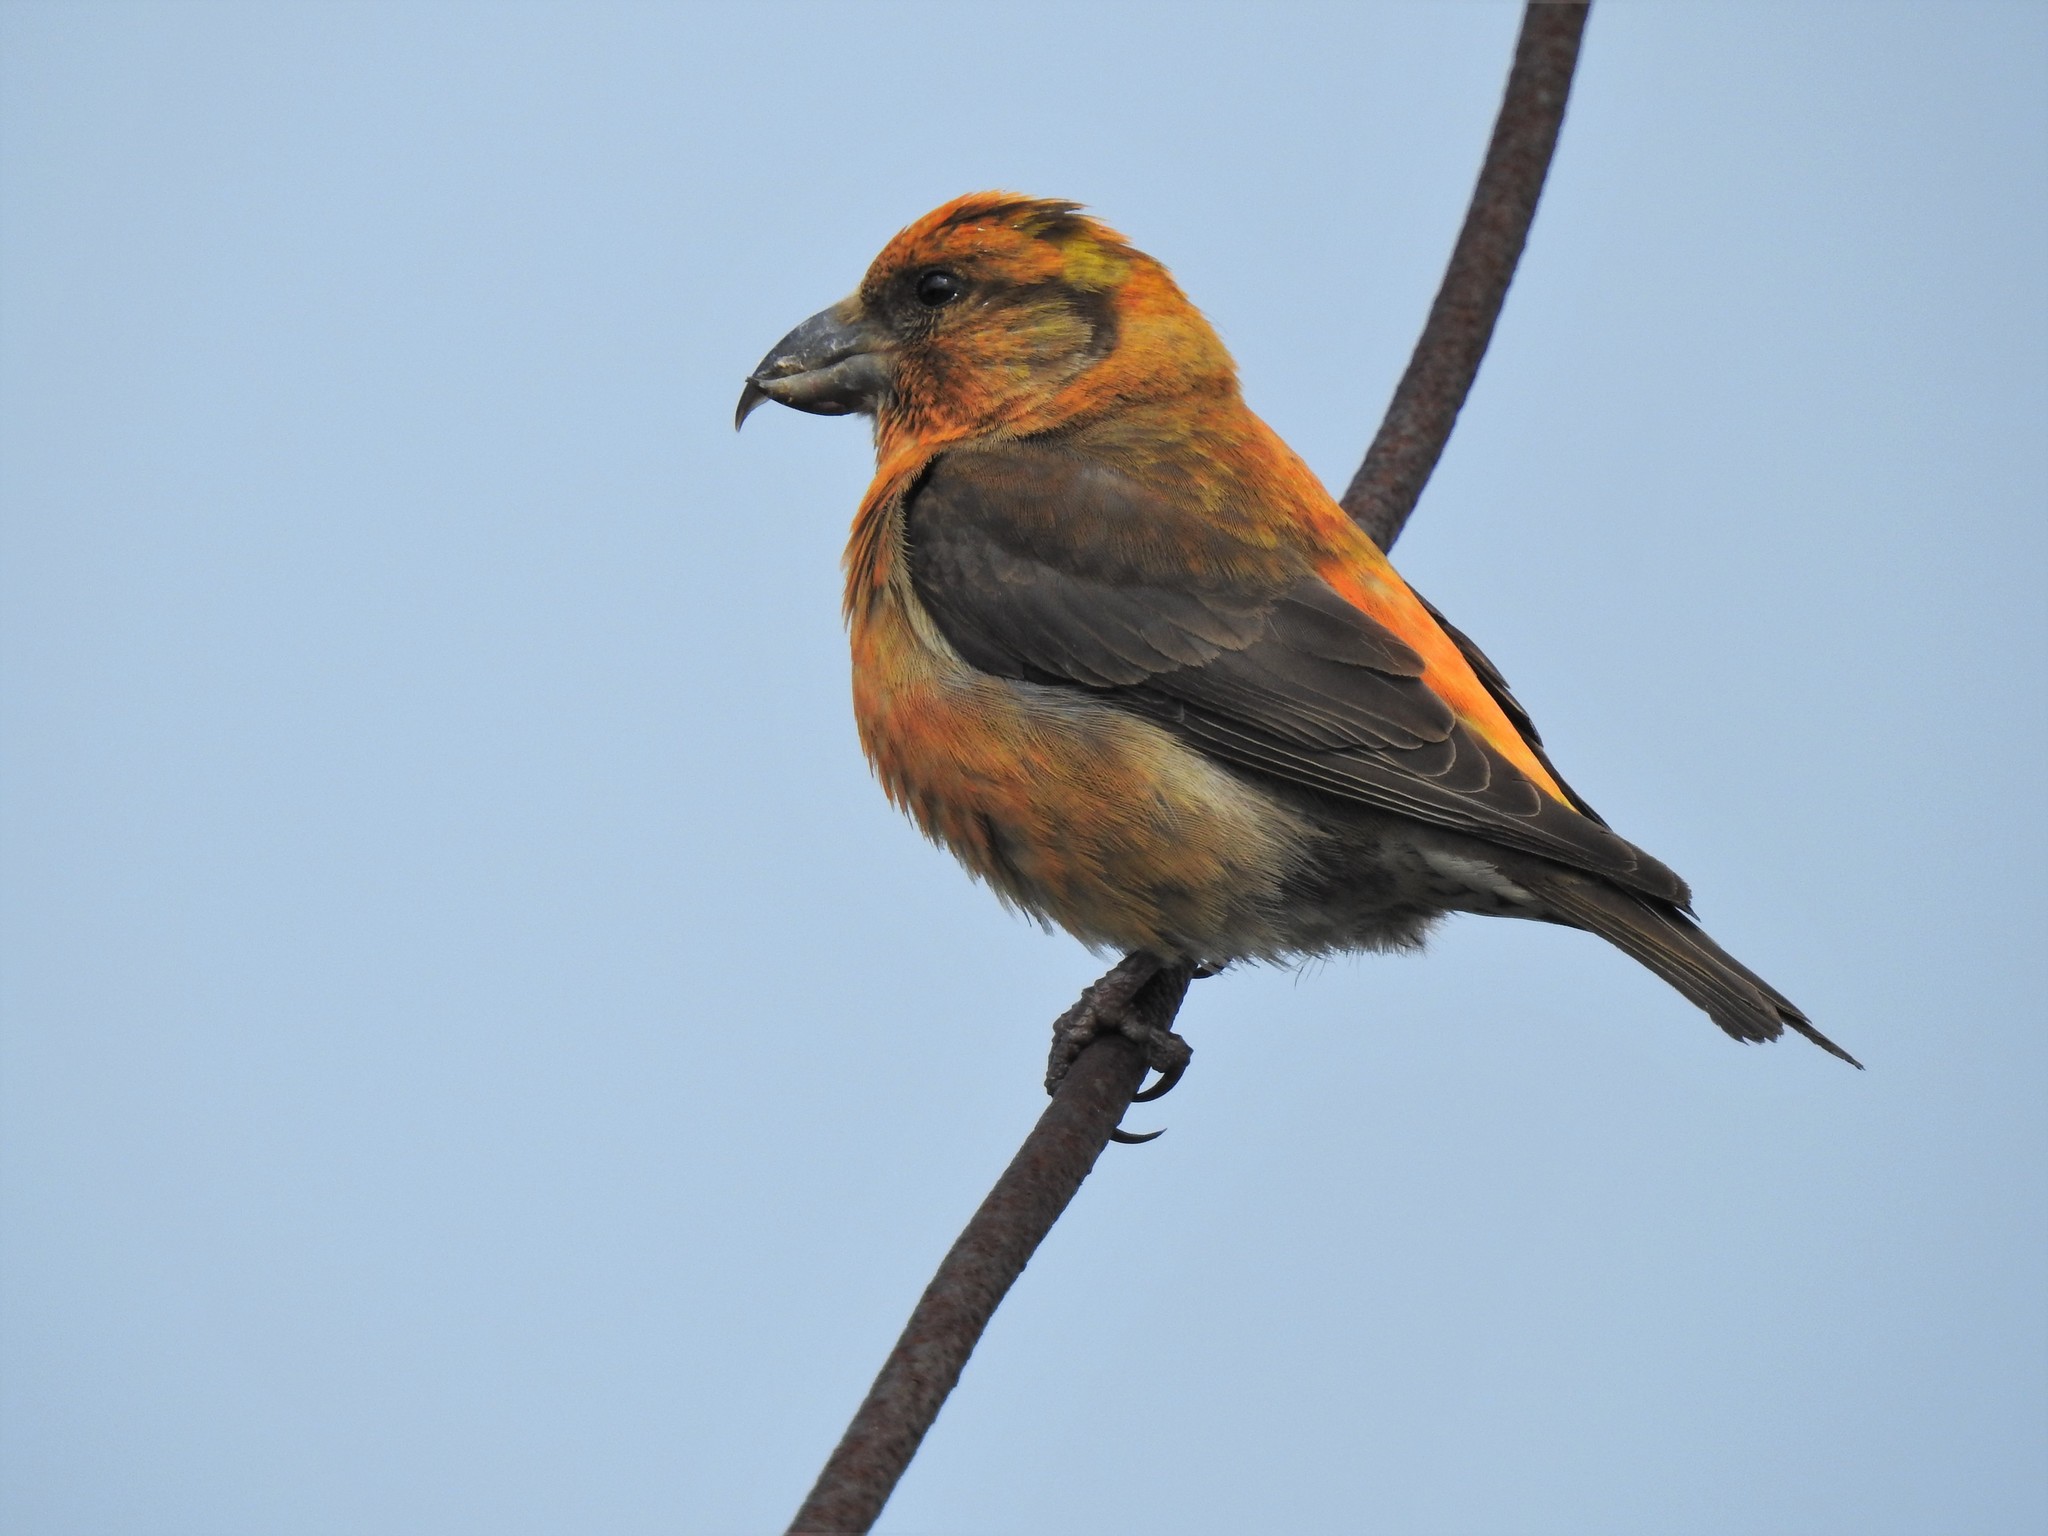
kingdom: Animalia
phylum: Chordata
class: Aves
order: Passeriformes
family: Fringillidae
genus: Loxia
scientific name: Loxia curvirostra
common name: Red crossbill
